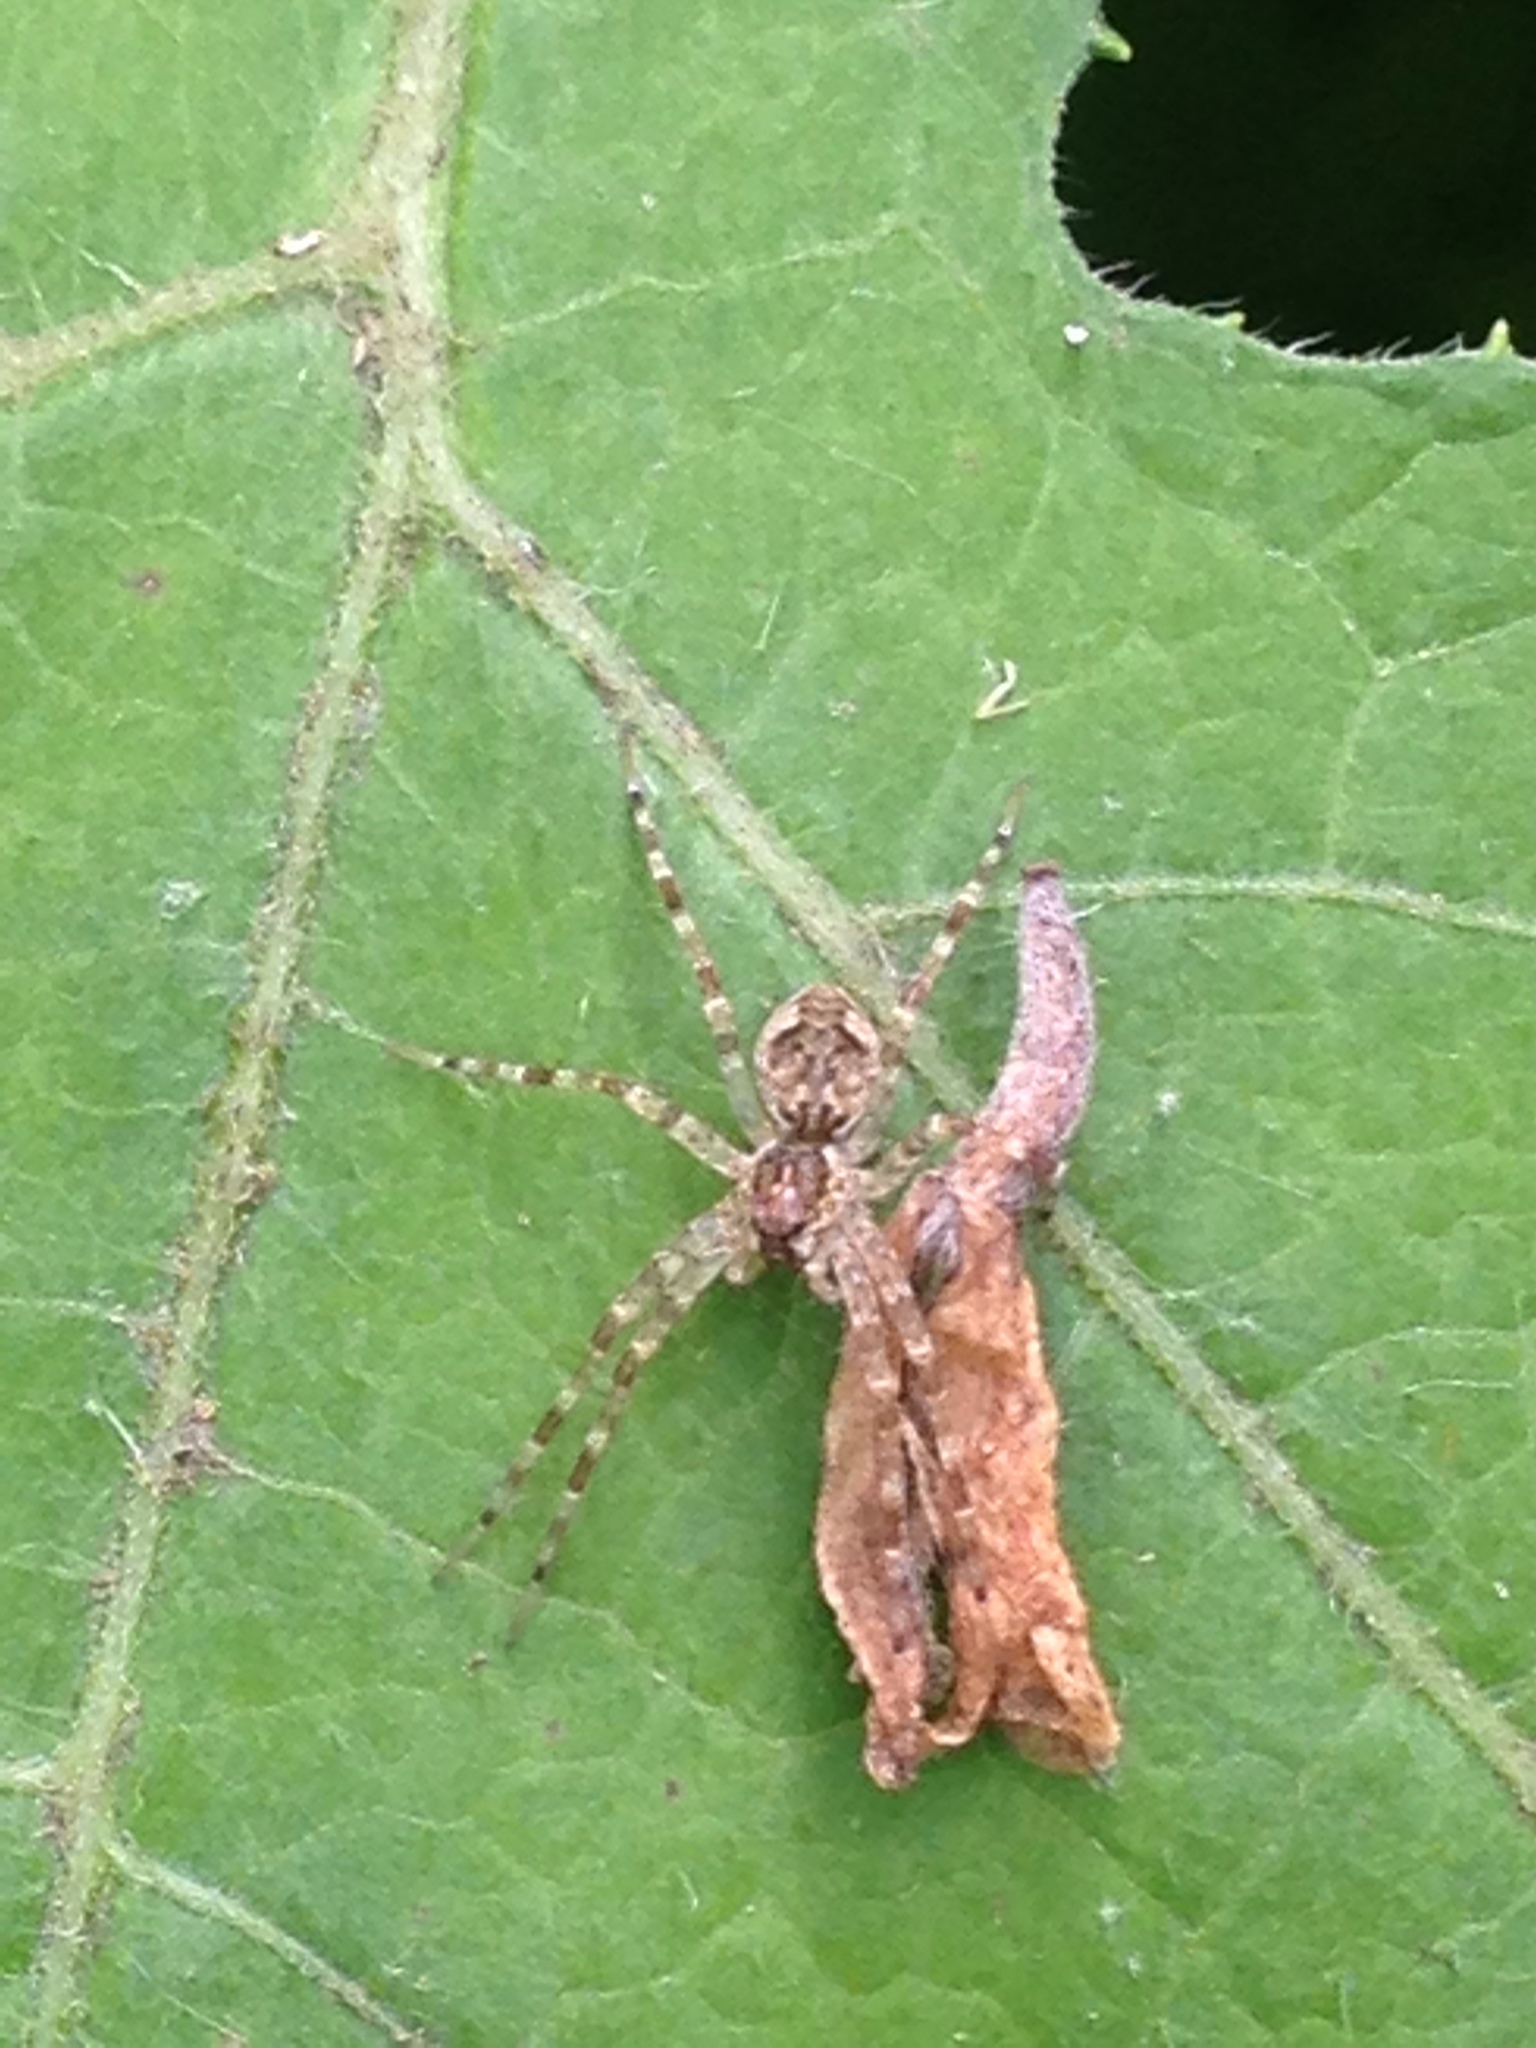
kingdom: Animalia
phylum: Arthropoda
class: Arachnida
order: Araneae
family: Pisauridae
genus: Dolomedes
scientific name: Dolomedes tenebrosus
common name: Dark fishing spider
